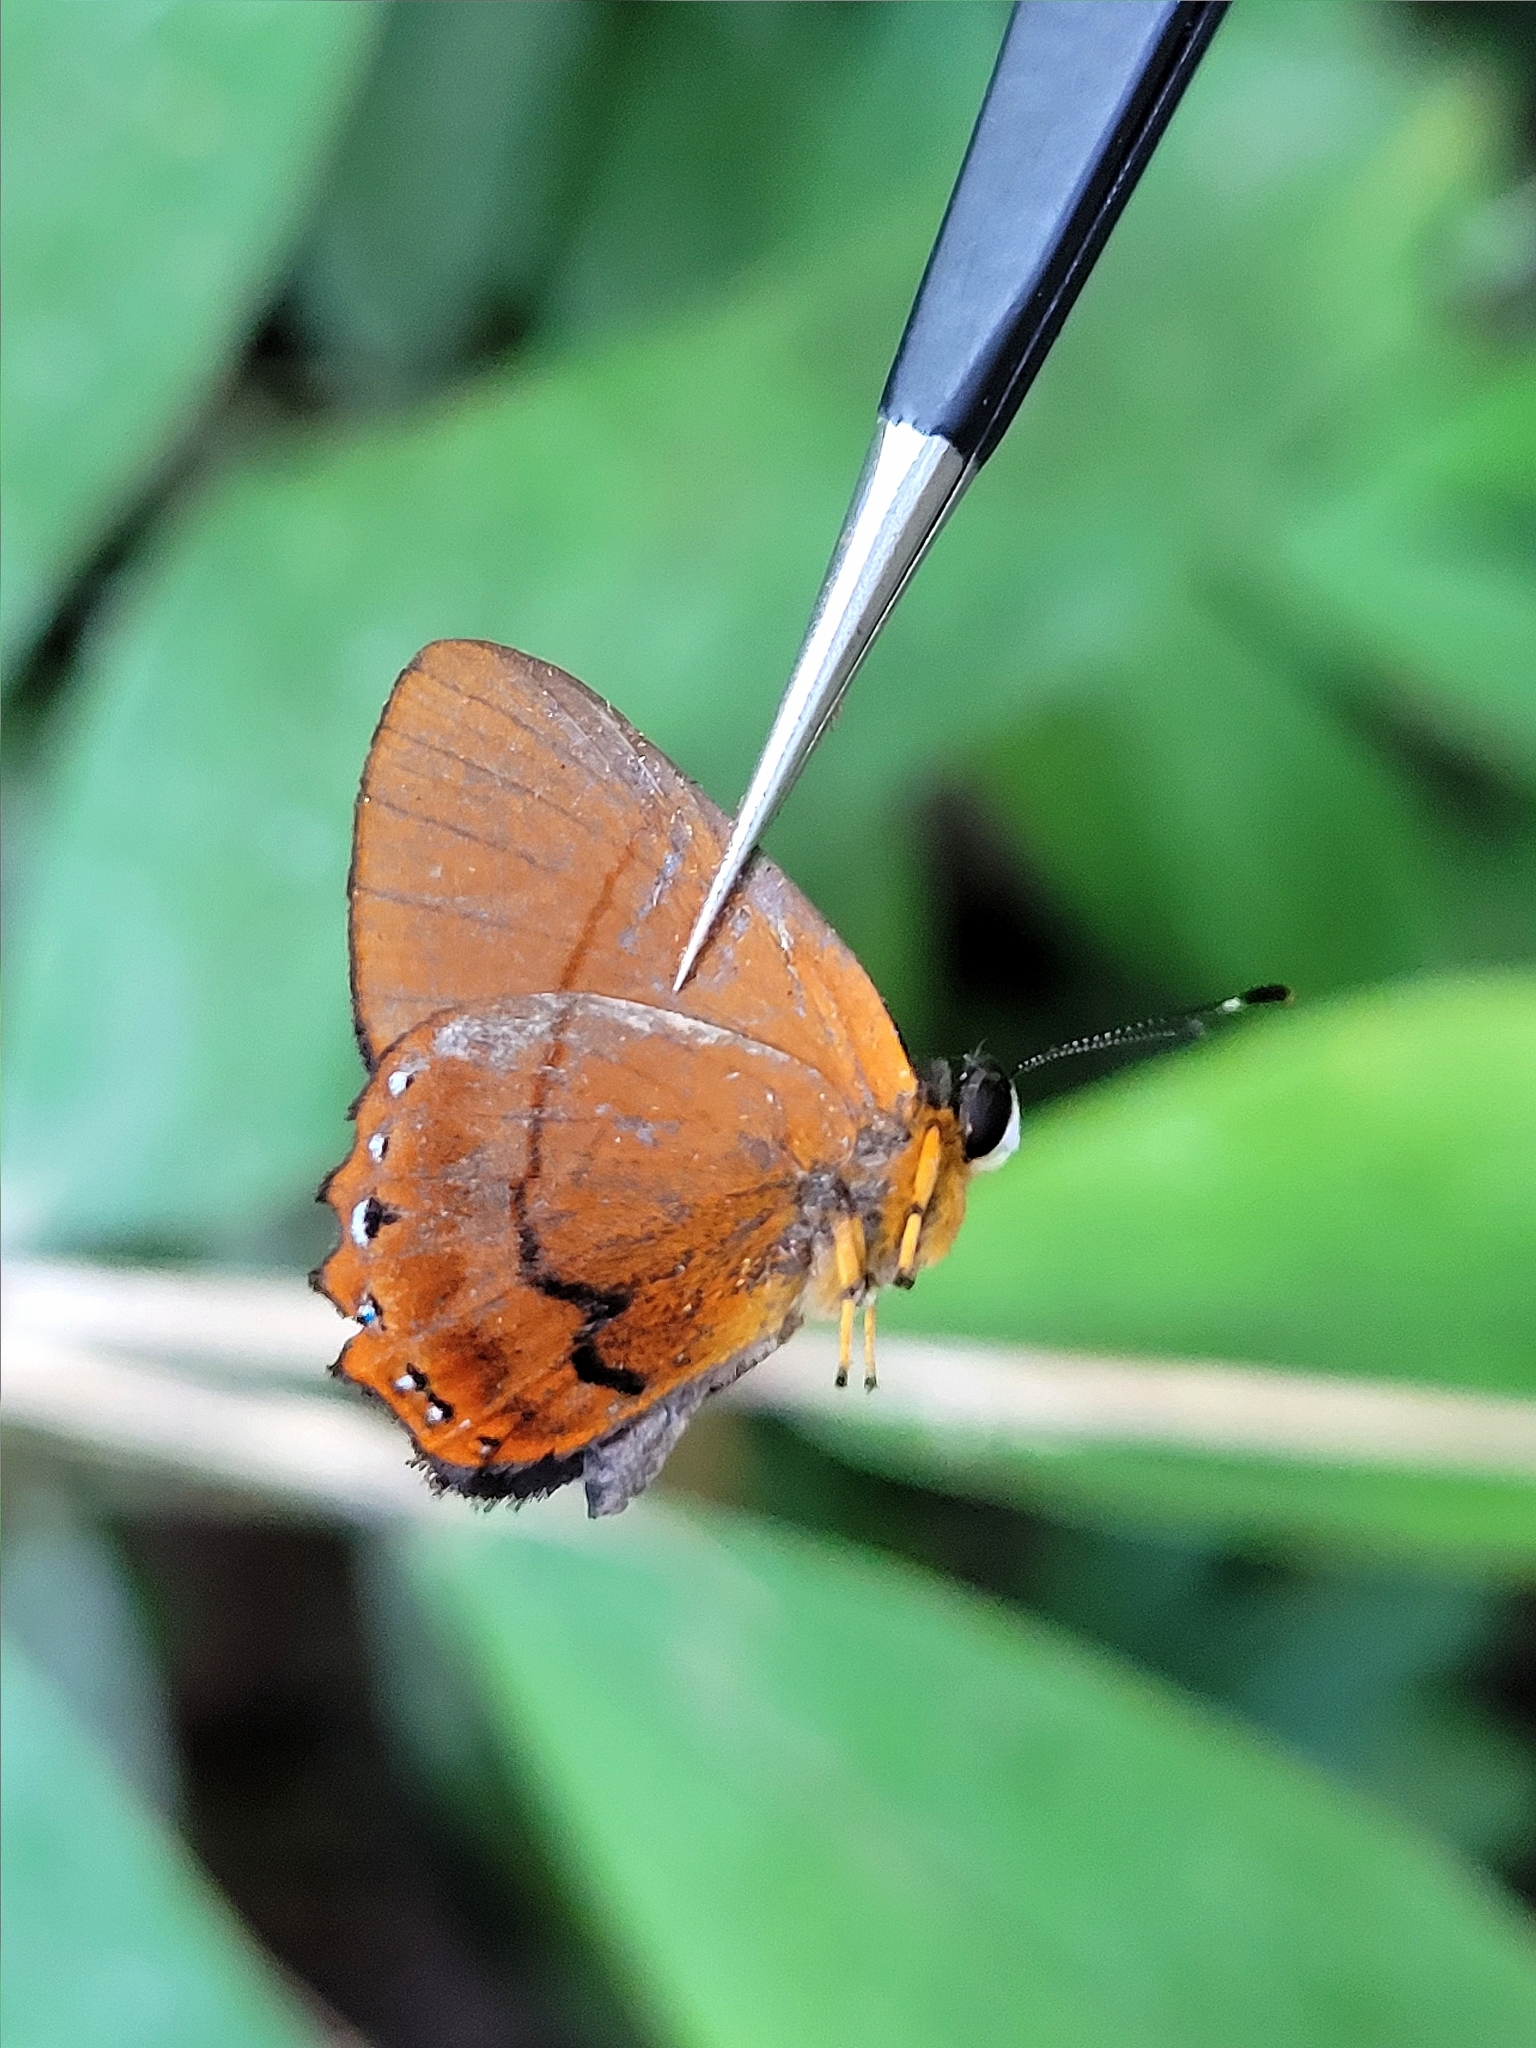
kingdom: Animalia
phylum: Arthropoda
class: Insecta
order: Lepidoptera
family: Riodinidae
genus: Pelolasia
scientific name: Pelolasia
